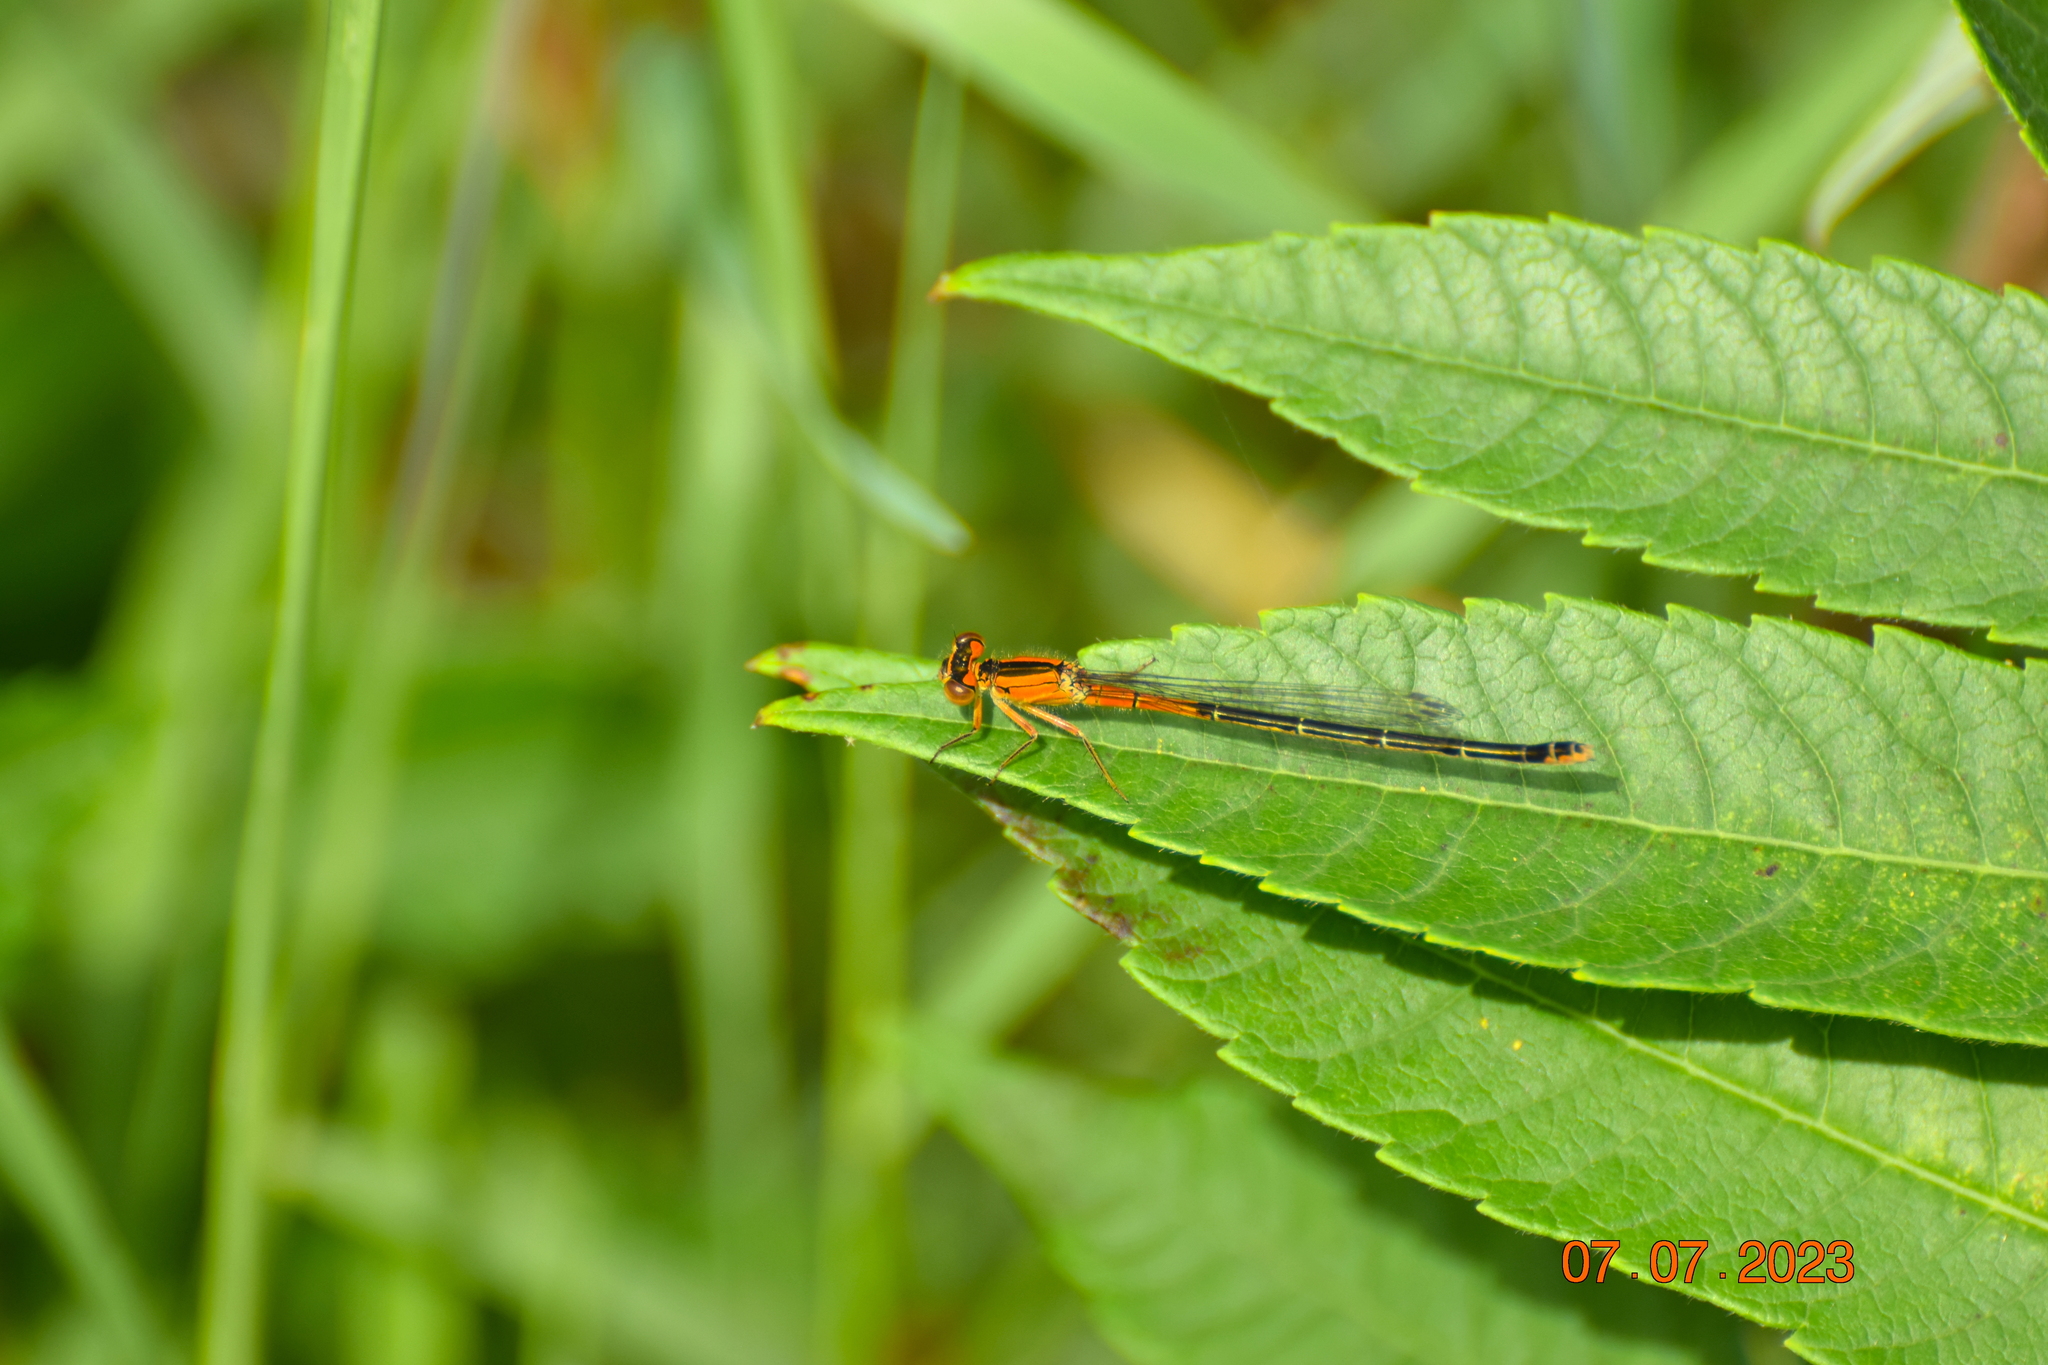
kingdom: Animalia
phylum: Arthropoda
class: Insecta
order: Odonata
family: Coenagrionidae
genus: Ischnura
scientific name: Ischnura verticalis
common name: Eastern forktail
